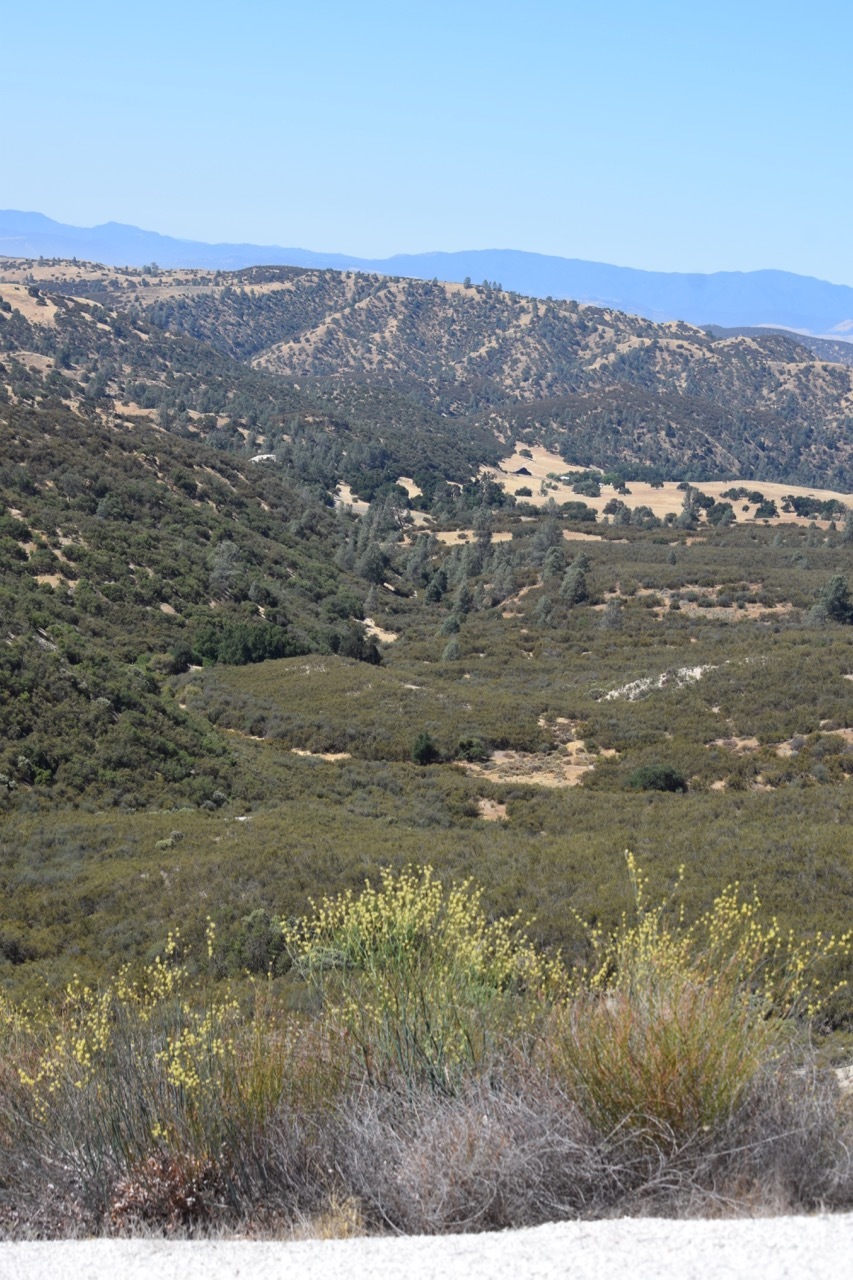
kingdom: Plantae
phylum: Tracheophyta
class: Magnoliopsida
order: Caryophyllales
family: Polygonaceae
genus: Eriogonum
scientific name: Eriogonum nudum
